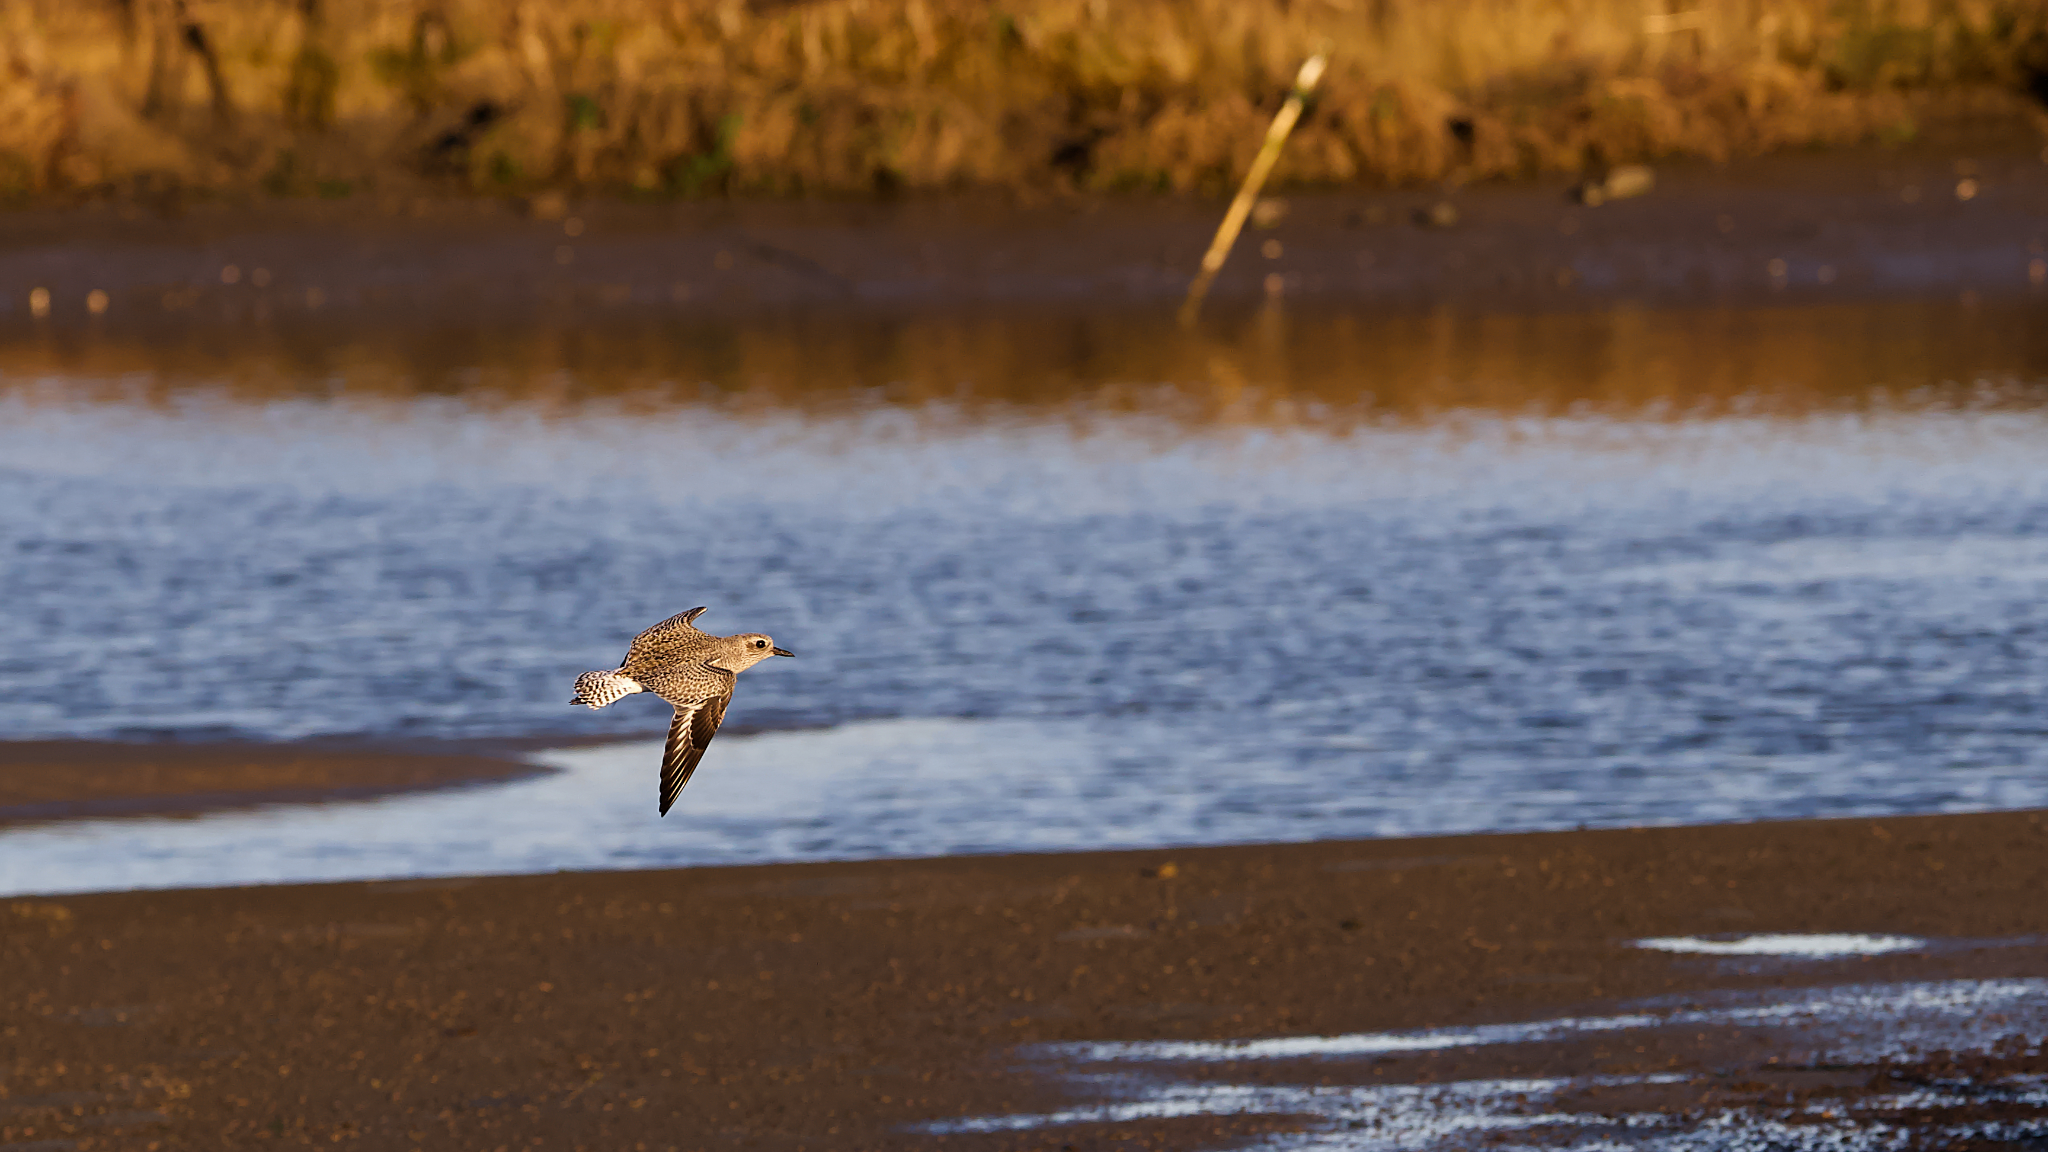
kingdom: Animalia
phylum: Chordata
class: Aves
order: Charadriiformes
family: Charadriidae
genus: Pluvialis
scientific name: Pluvialis squatarola
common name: Grey plover
